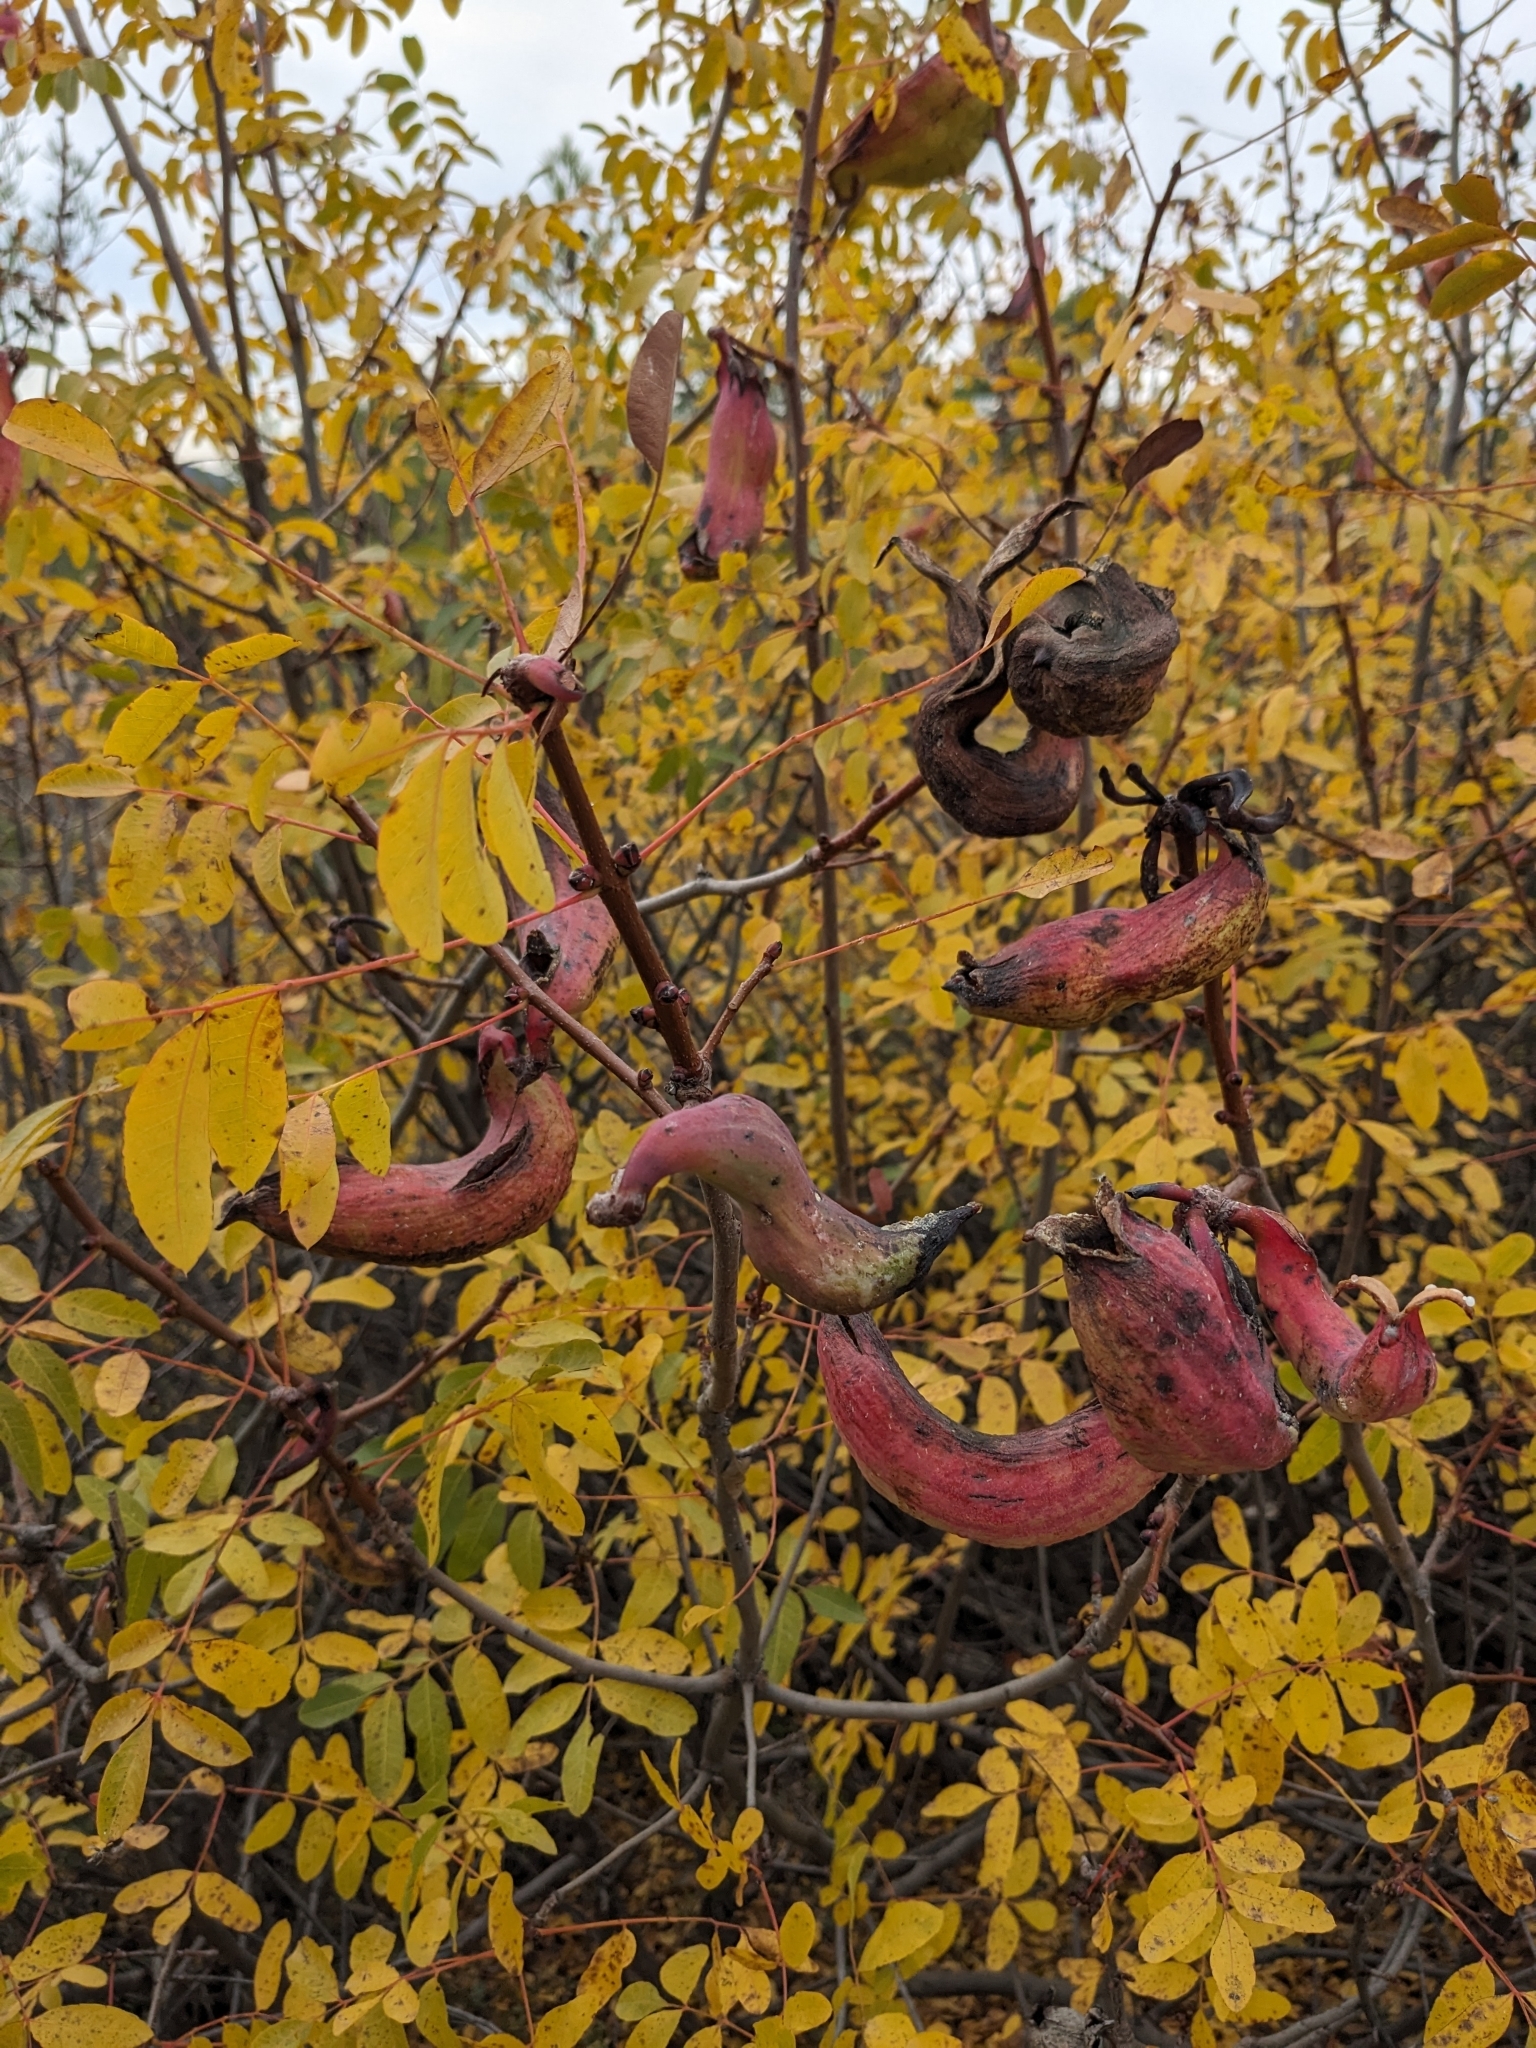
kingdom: Plantae
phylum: Tracheophyta
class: Magnoliopsida
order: Sapindales
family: Anacardiaceae
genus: Pistacia
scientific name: Pistacia terebinthus
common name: Terebinth
